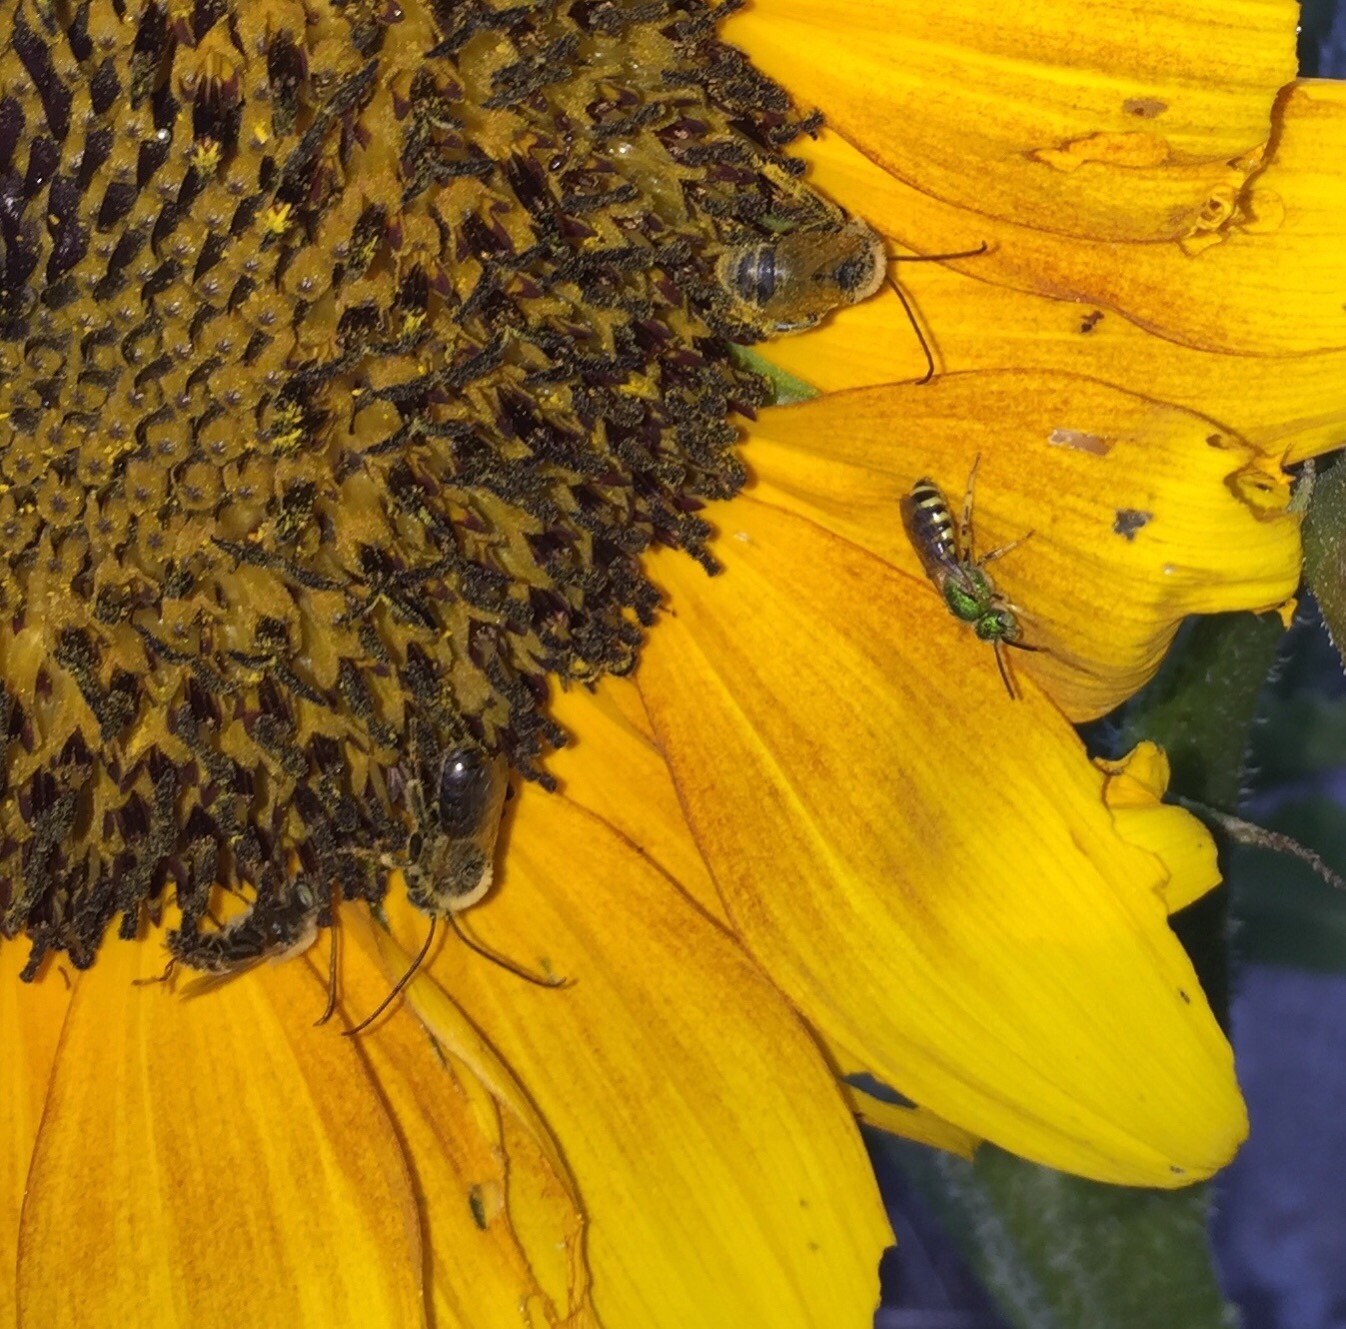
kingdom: Animalia
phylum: Arthropoda
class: Insecta
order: Hymenoptera
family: Halictidae
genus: Agapostemon
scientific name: Agapostemon
